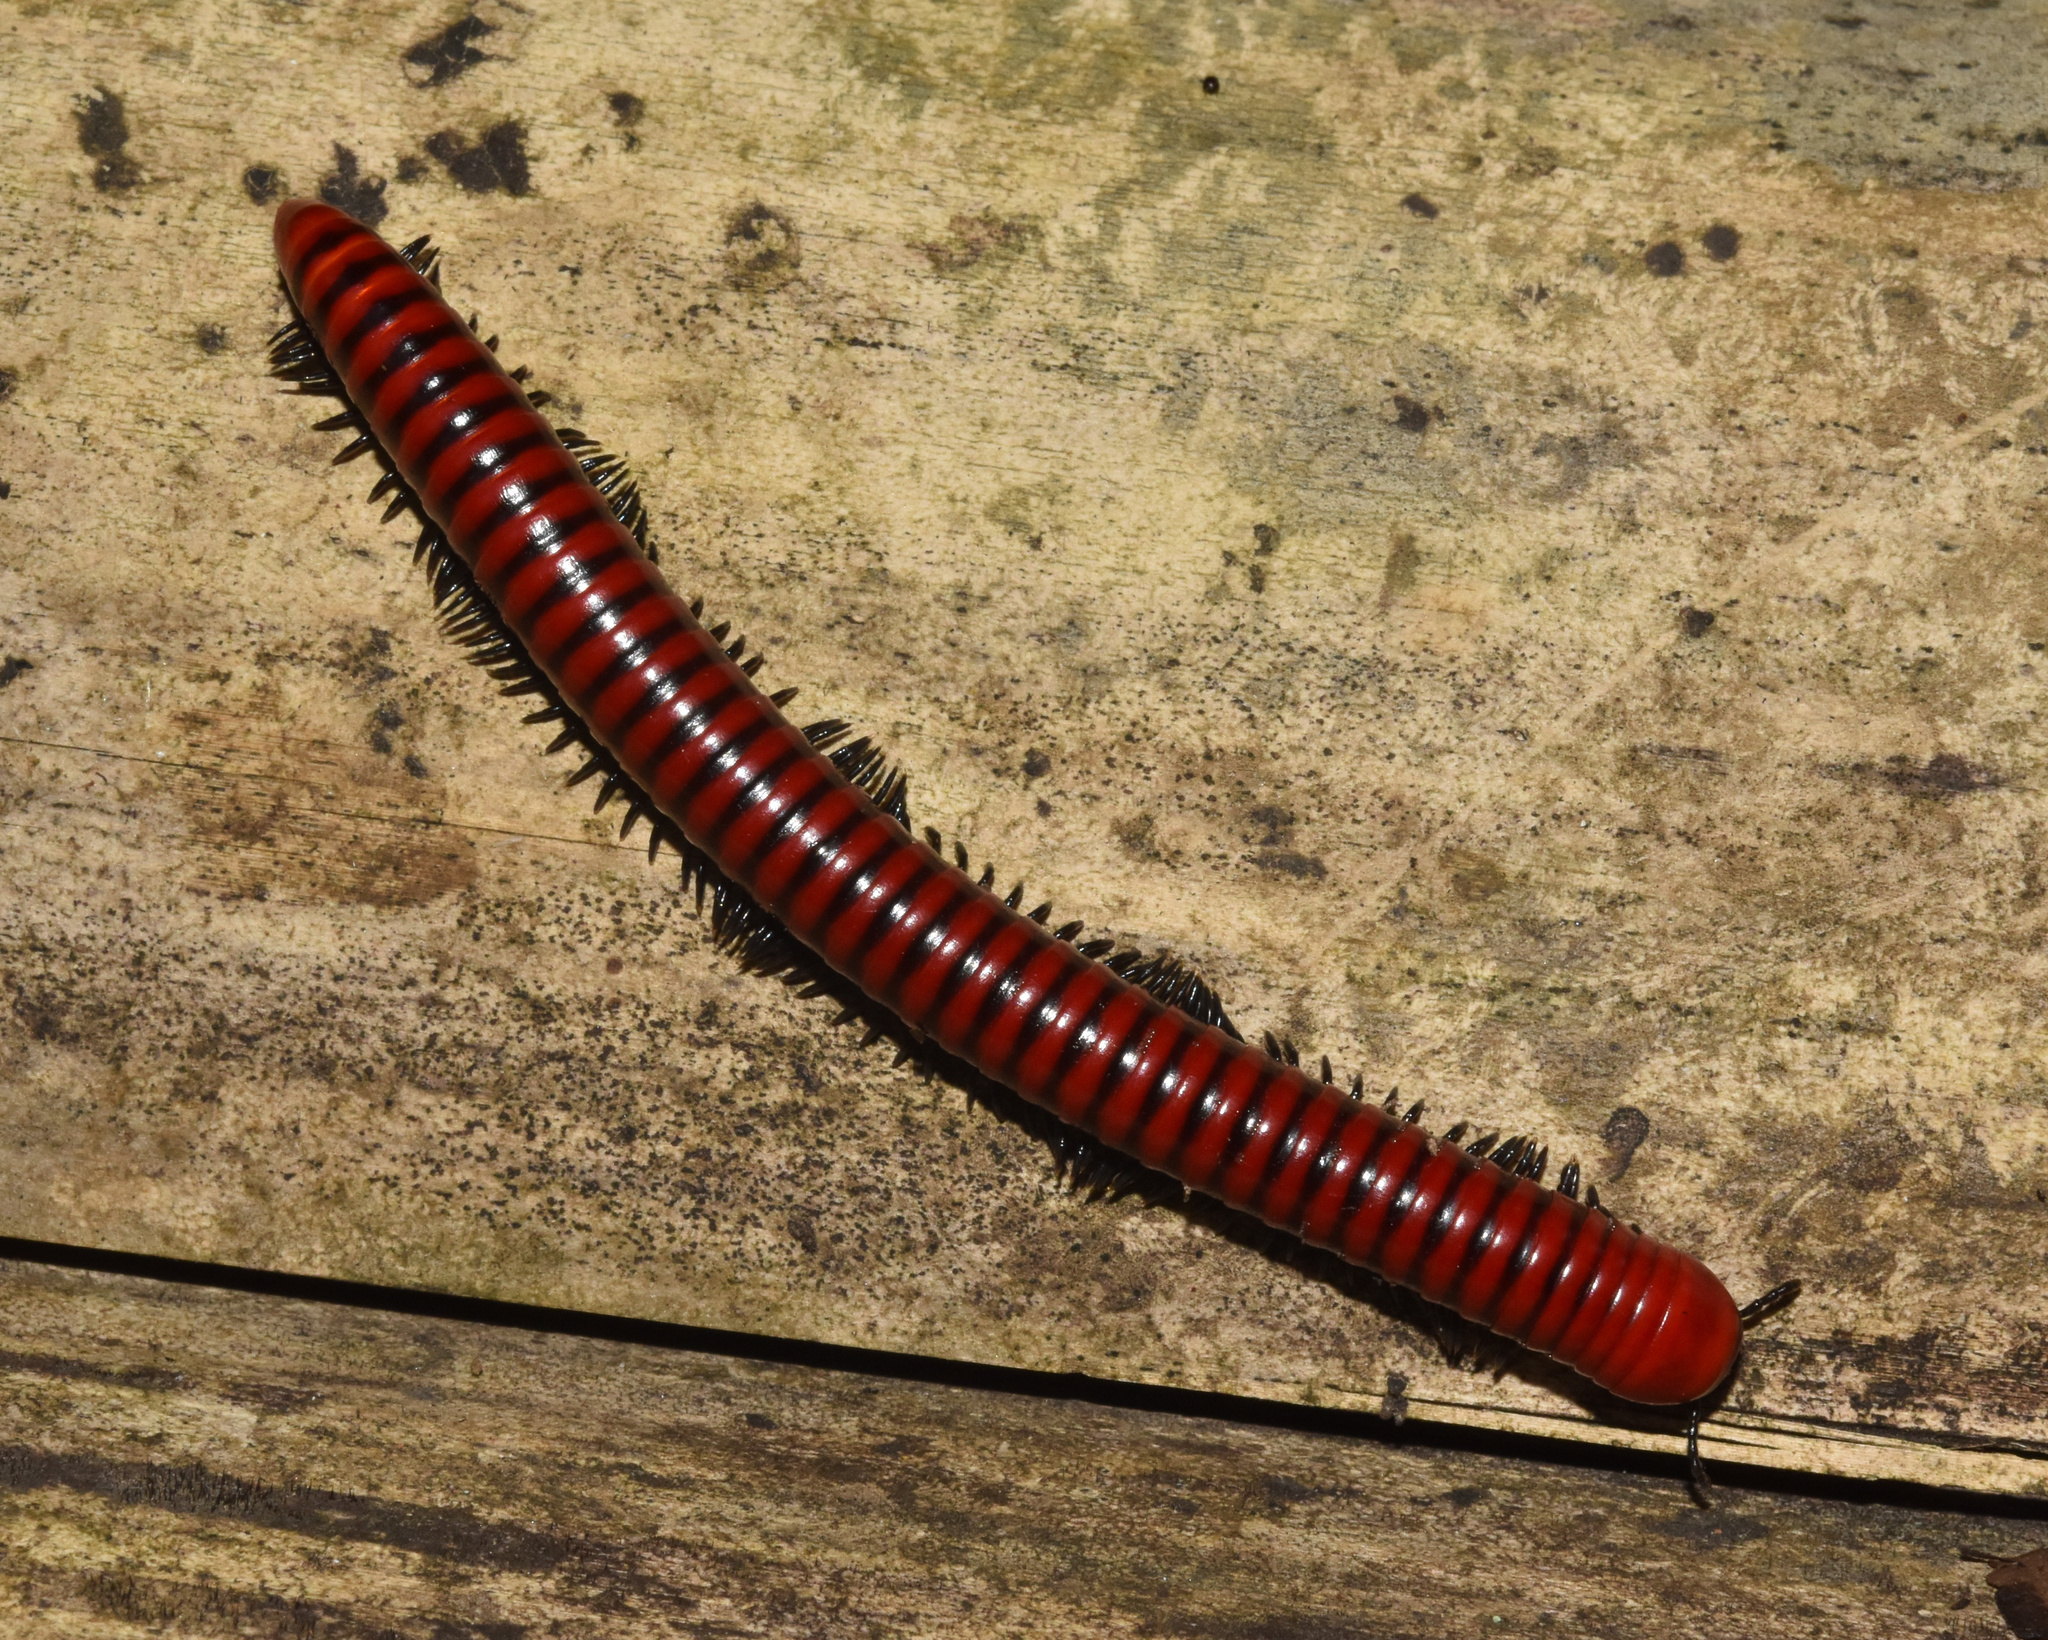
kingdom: Animalia
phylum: Arthropoda
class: Diplopoda
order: Spirobolida
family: Pachybolidae
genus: Centrobolus
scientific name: Centrobolus anulatus
